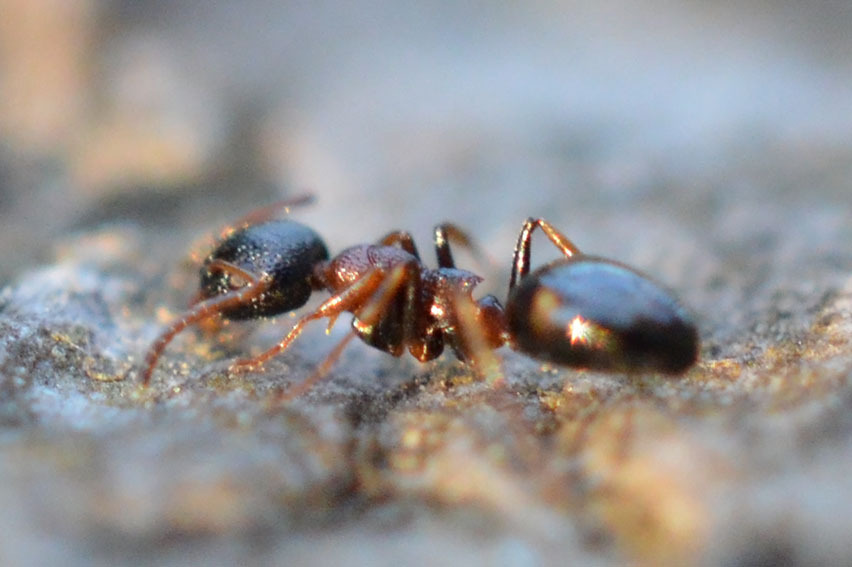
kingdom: Animalia
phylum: Arthropoda
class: Insecta
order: Hymenoptera
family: Formicidae
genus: Dolichoderus
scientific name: Dolichoderus quadripunctatus
